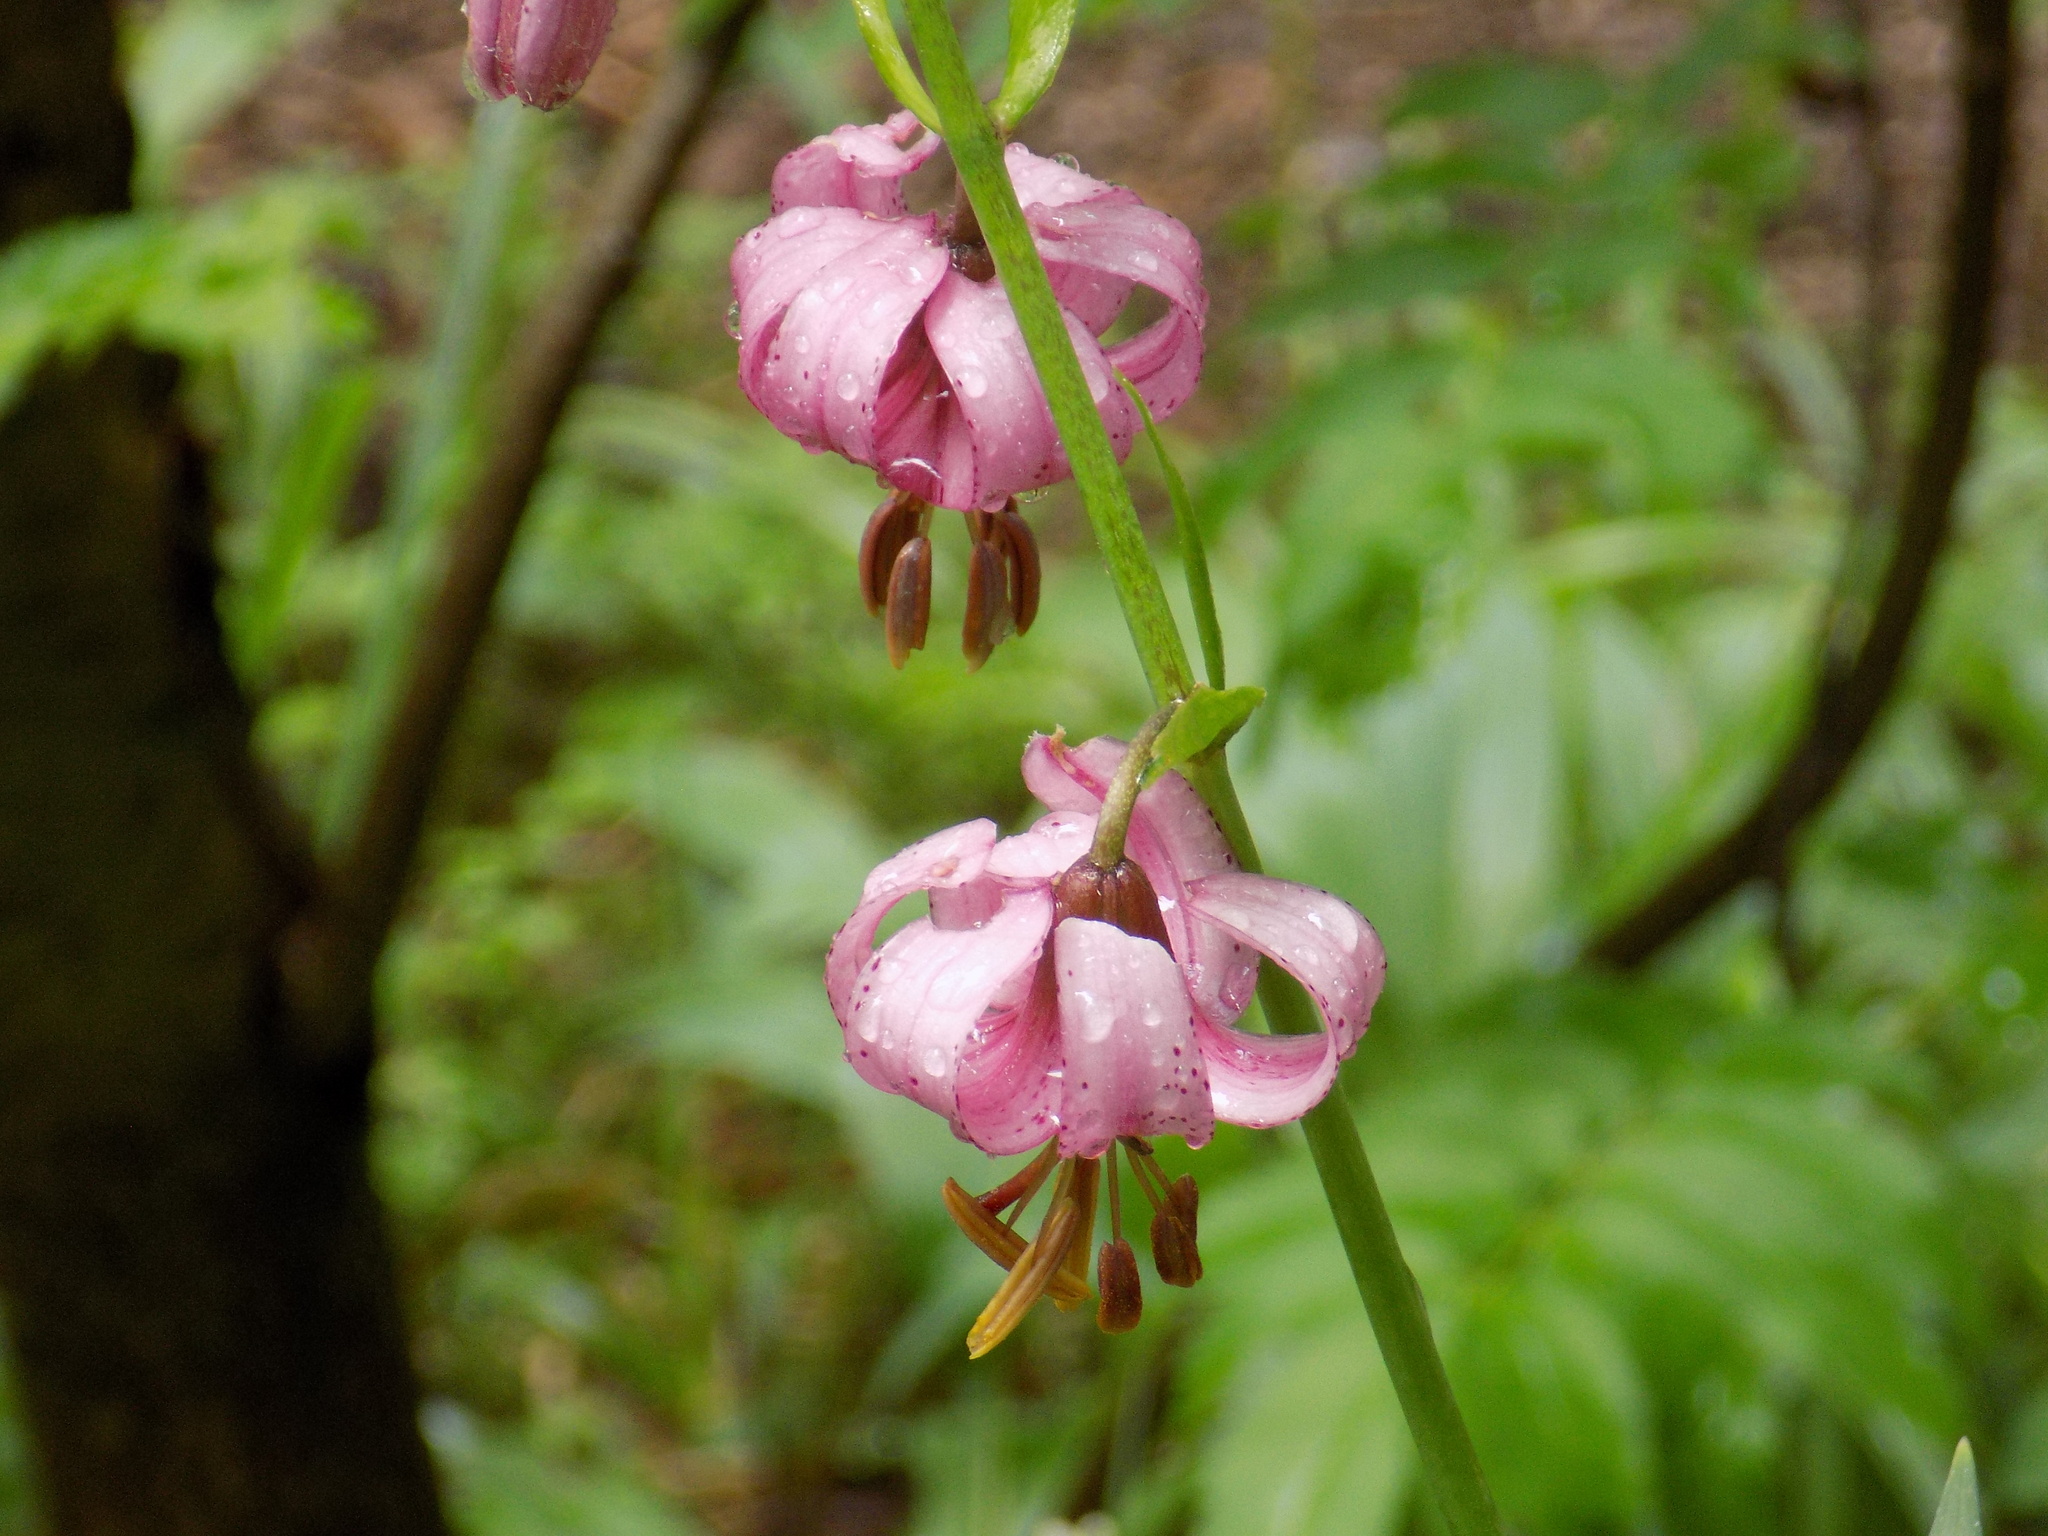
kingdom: Plantae
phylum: Tracheophyta
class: Liliopsida
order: Liliales
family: Liliaceae
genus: Lilium
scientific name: Lilium martagon
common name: Martagon lily
